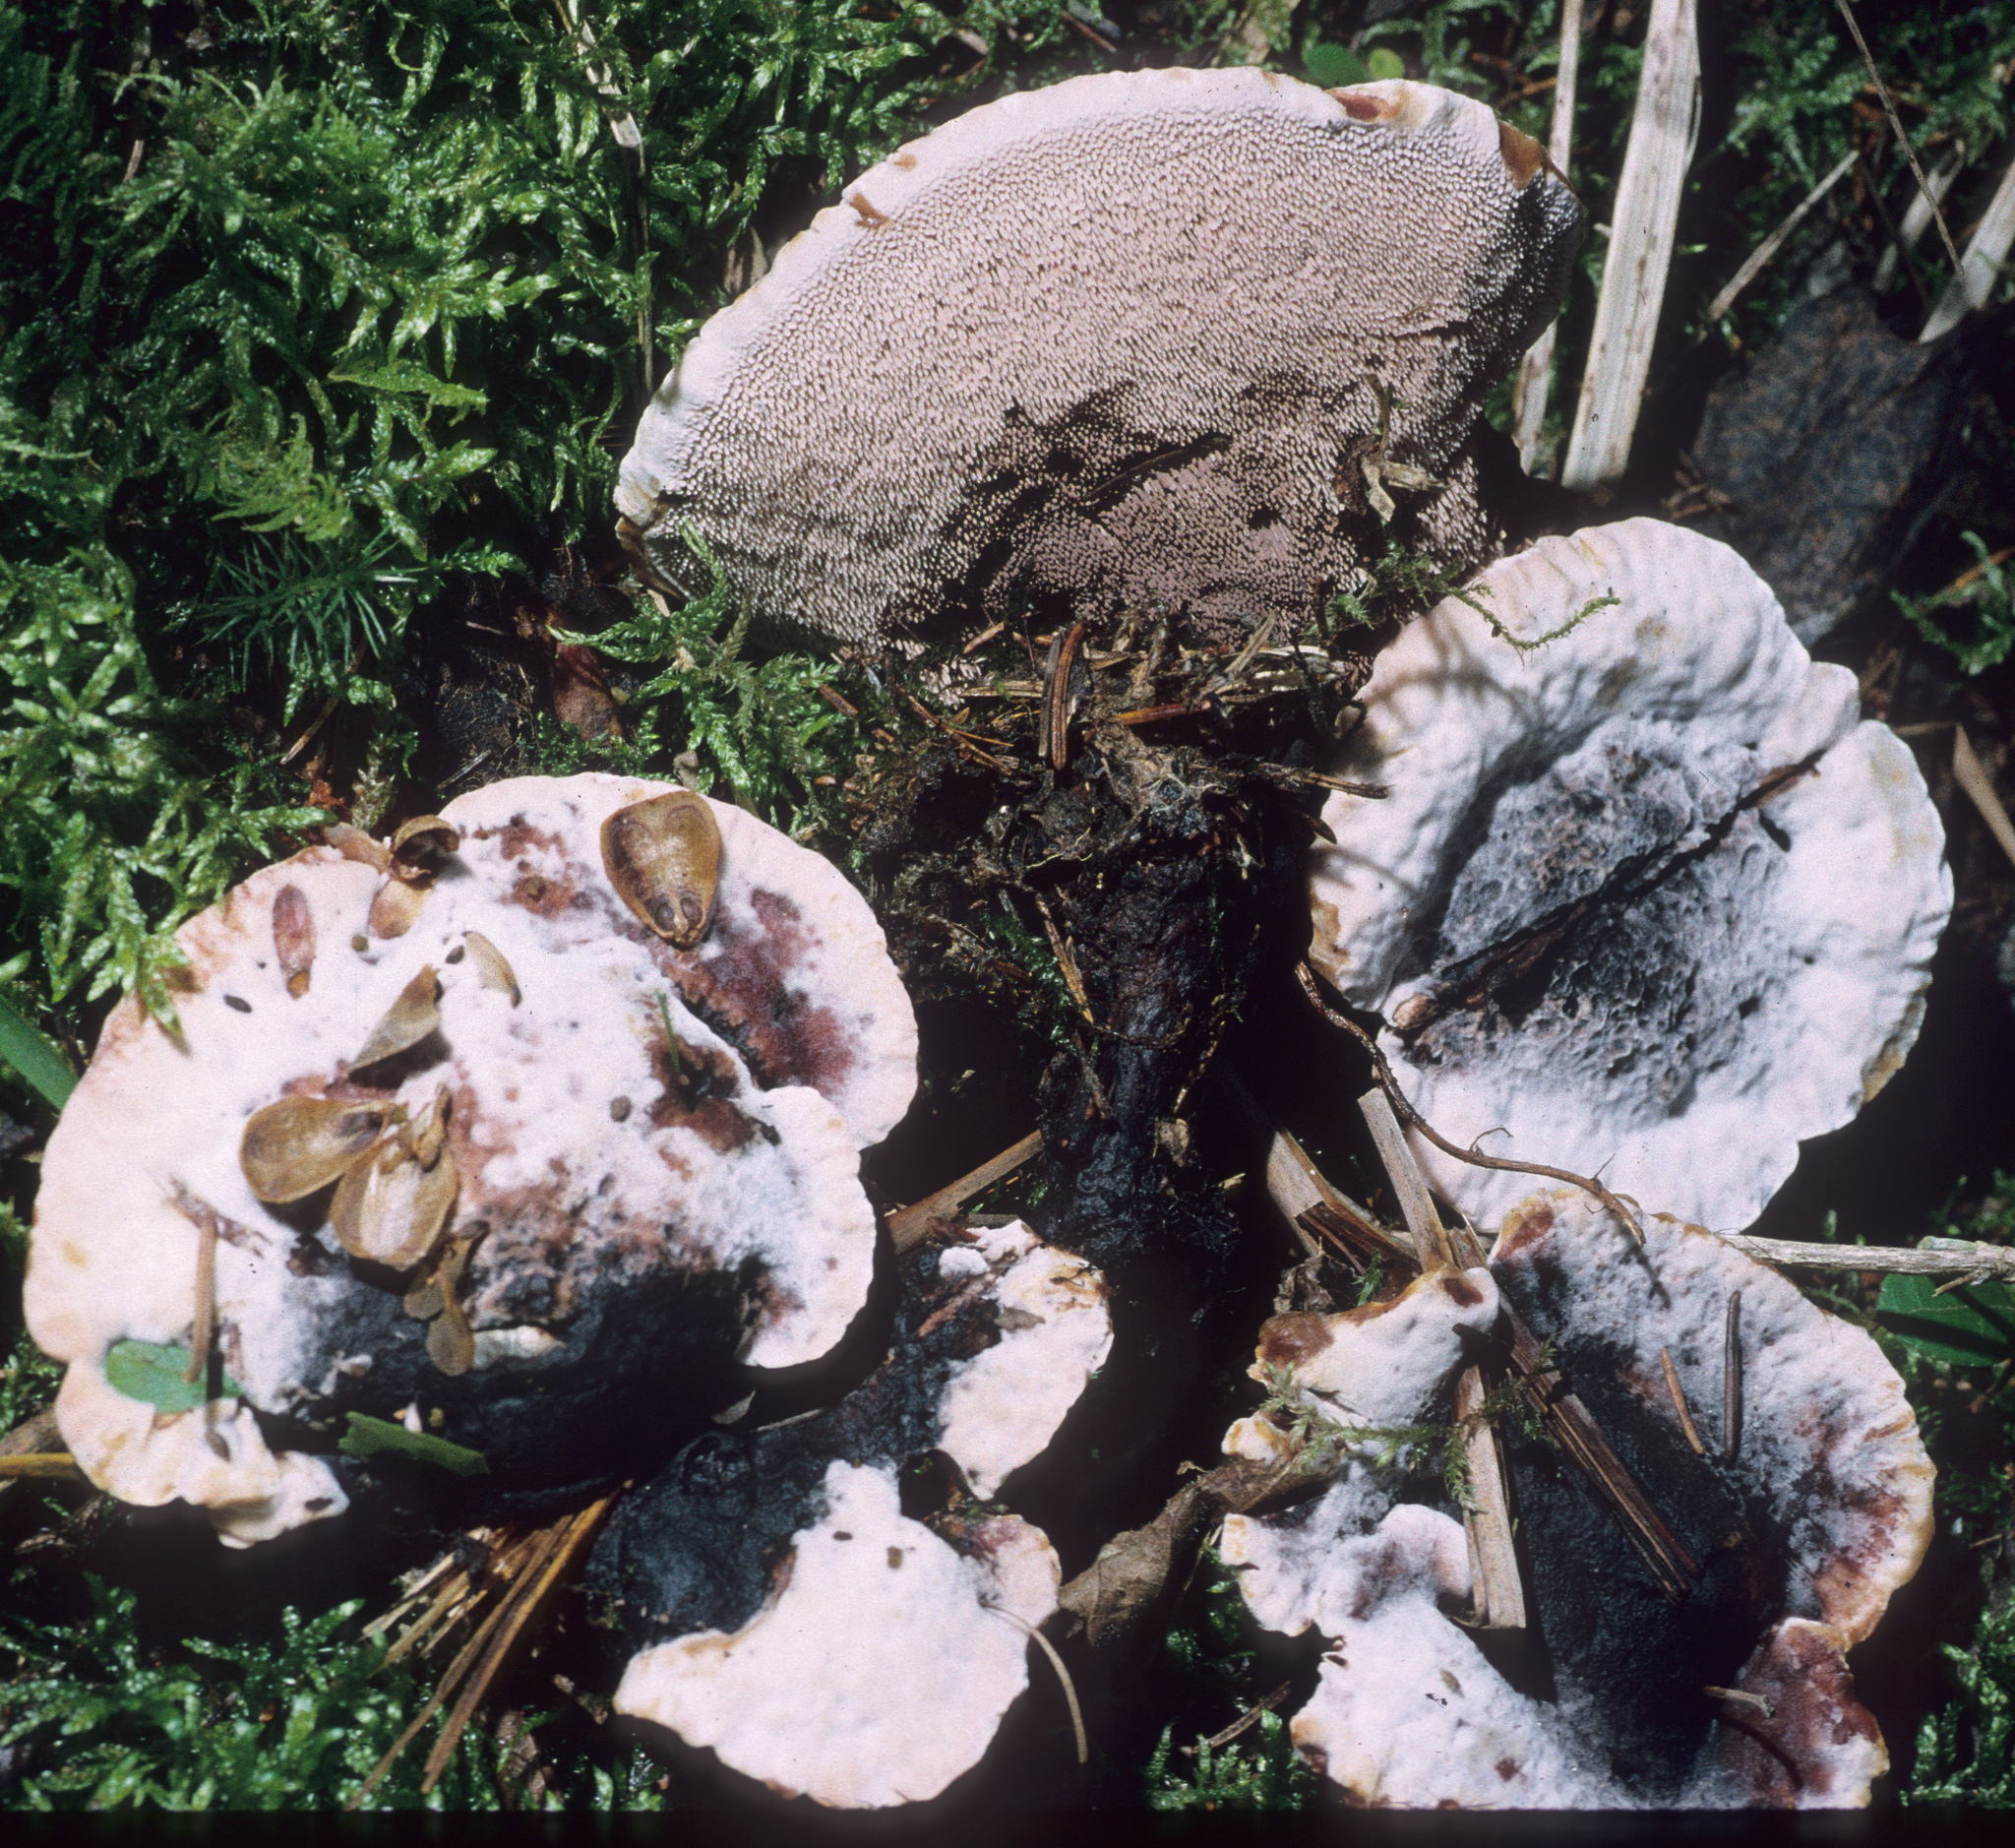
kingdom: Fungi
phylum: Basidiomycota
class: Agaricomycetes
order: Thelephorales
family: Bankeraceae
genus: Hydnellum
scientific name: Hydnellum peckii
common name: Devil's tooth
